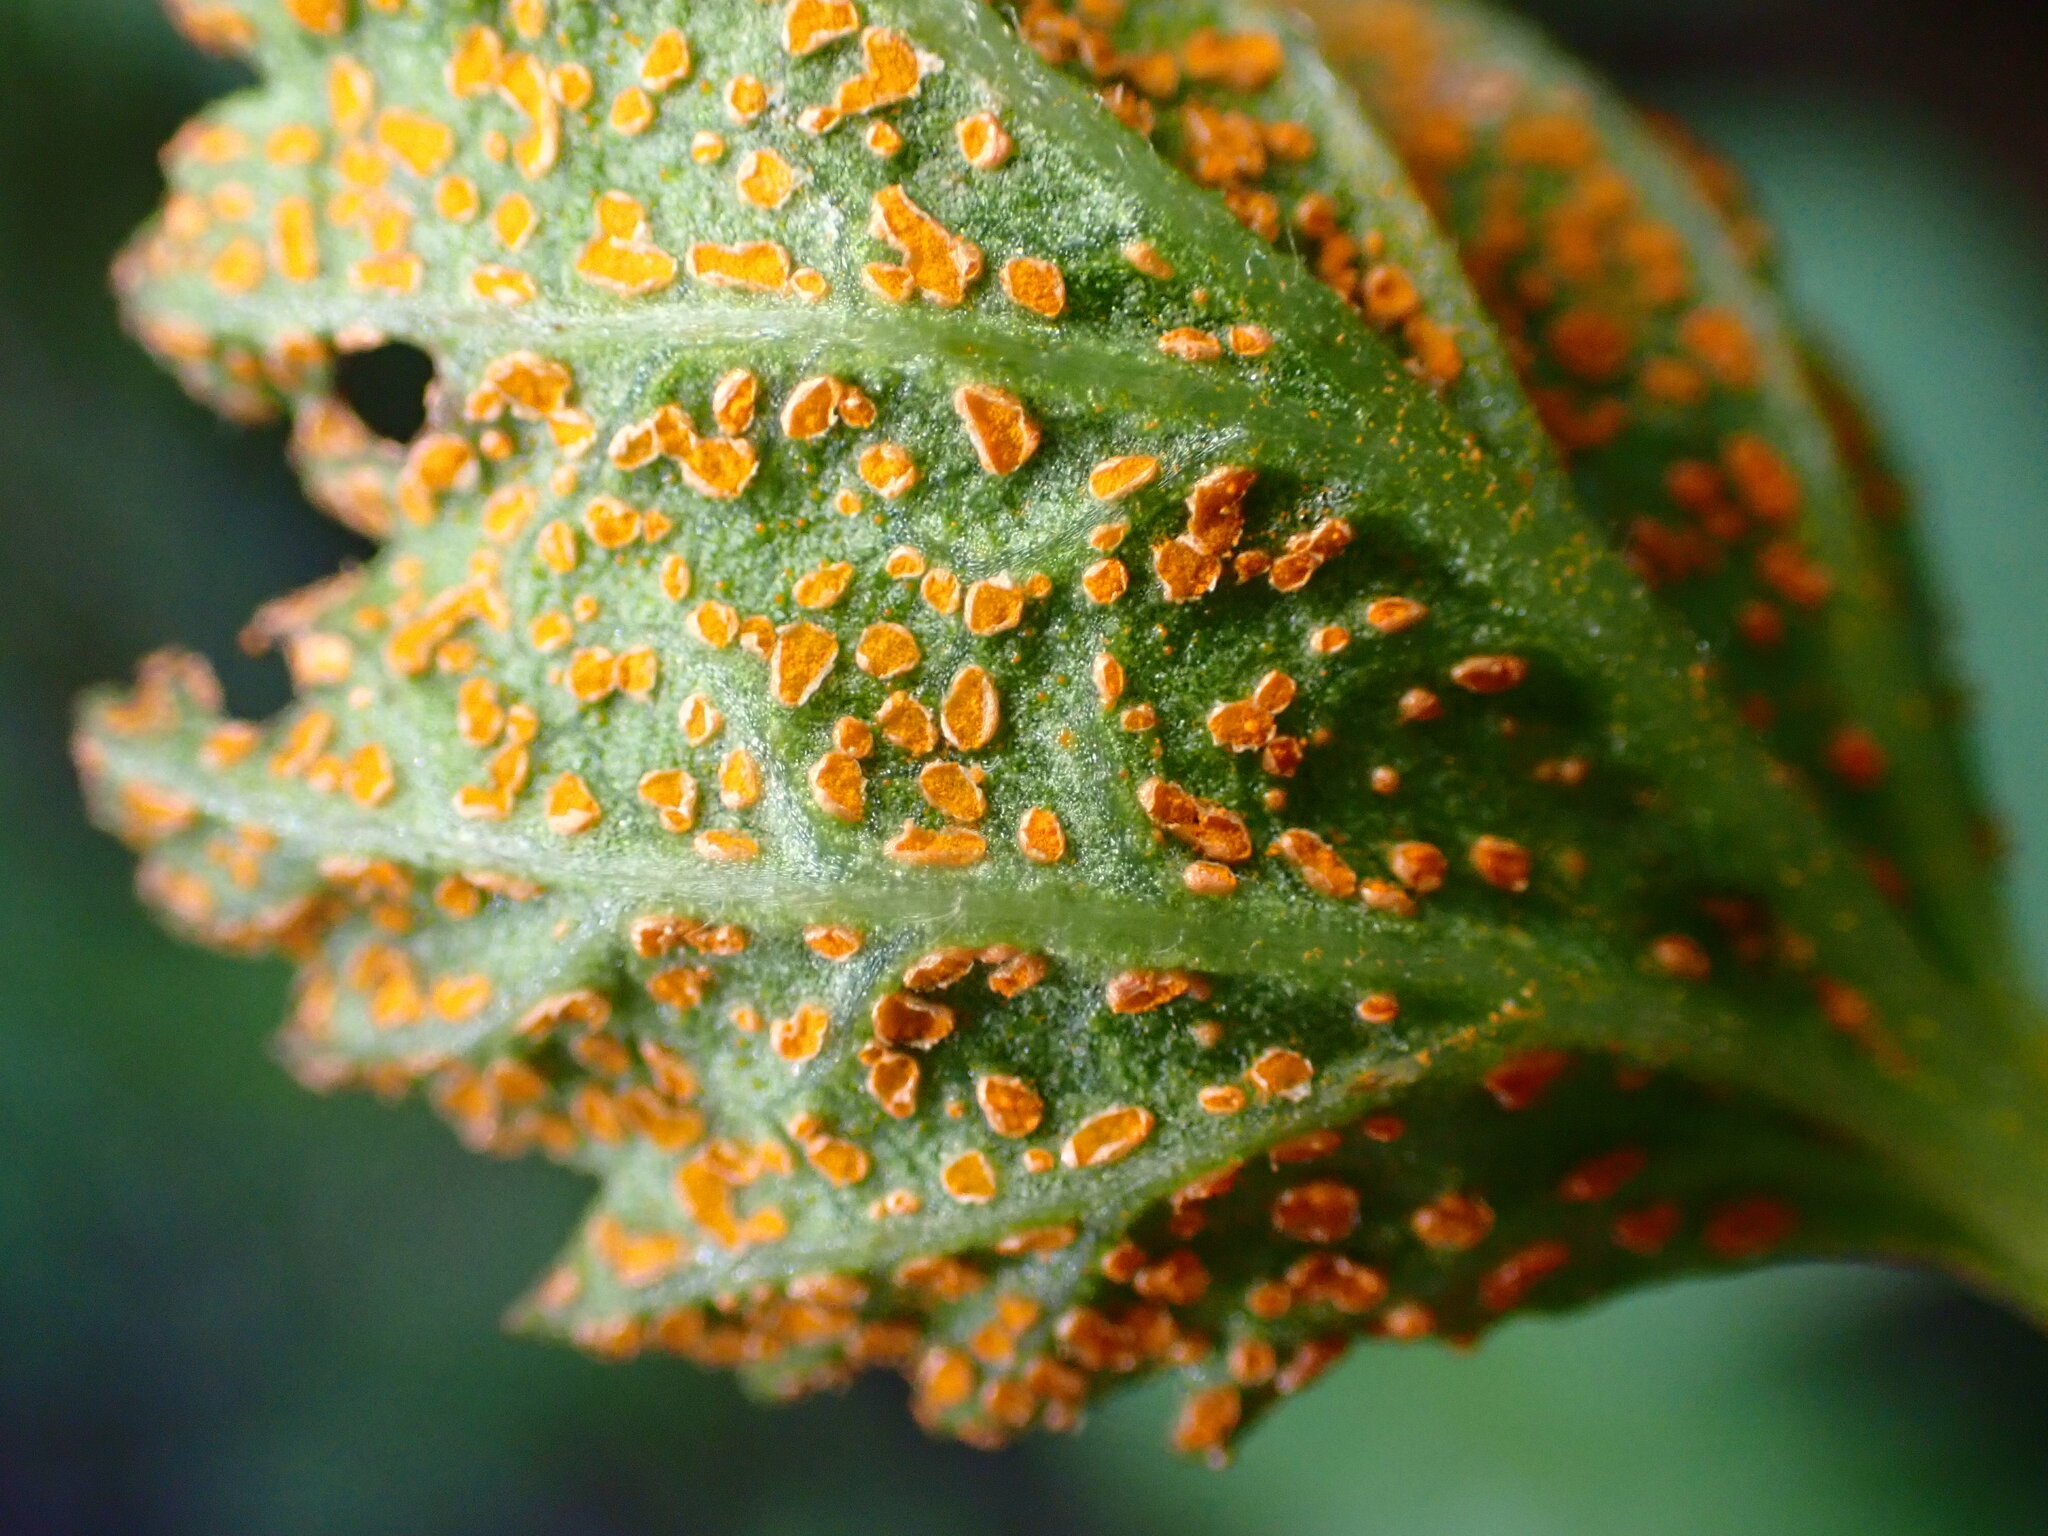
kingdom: Fungi
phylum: Basidiomycota
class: Pucciniomycetes
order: Pucciniales
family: Phragmidiaceae
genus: Arthuriomyces
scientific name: Arthuriomyces peckianus
